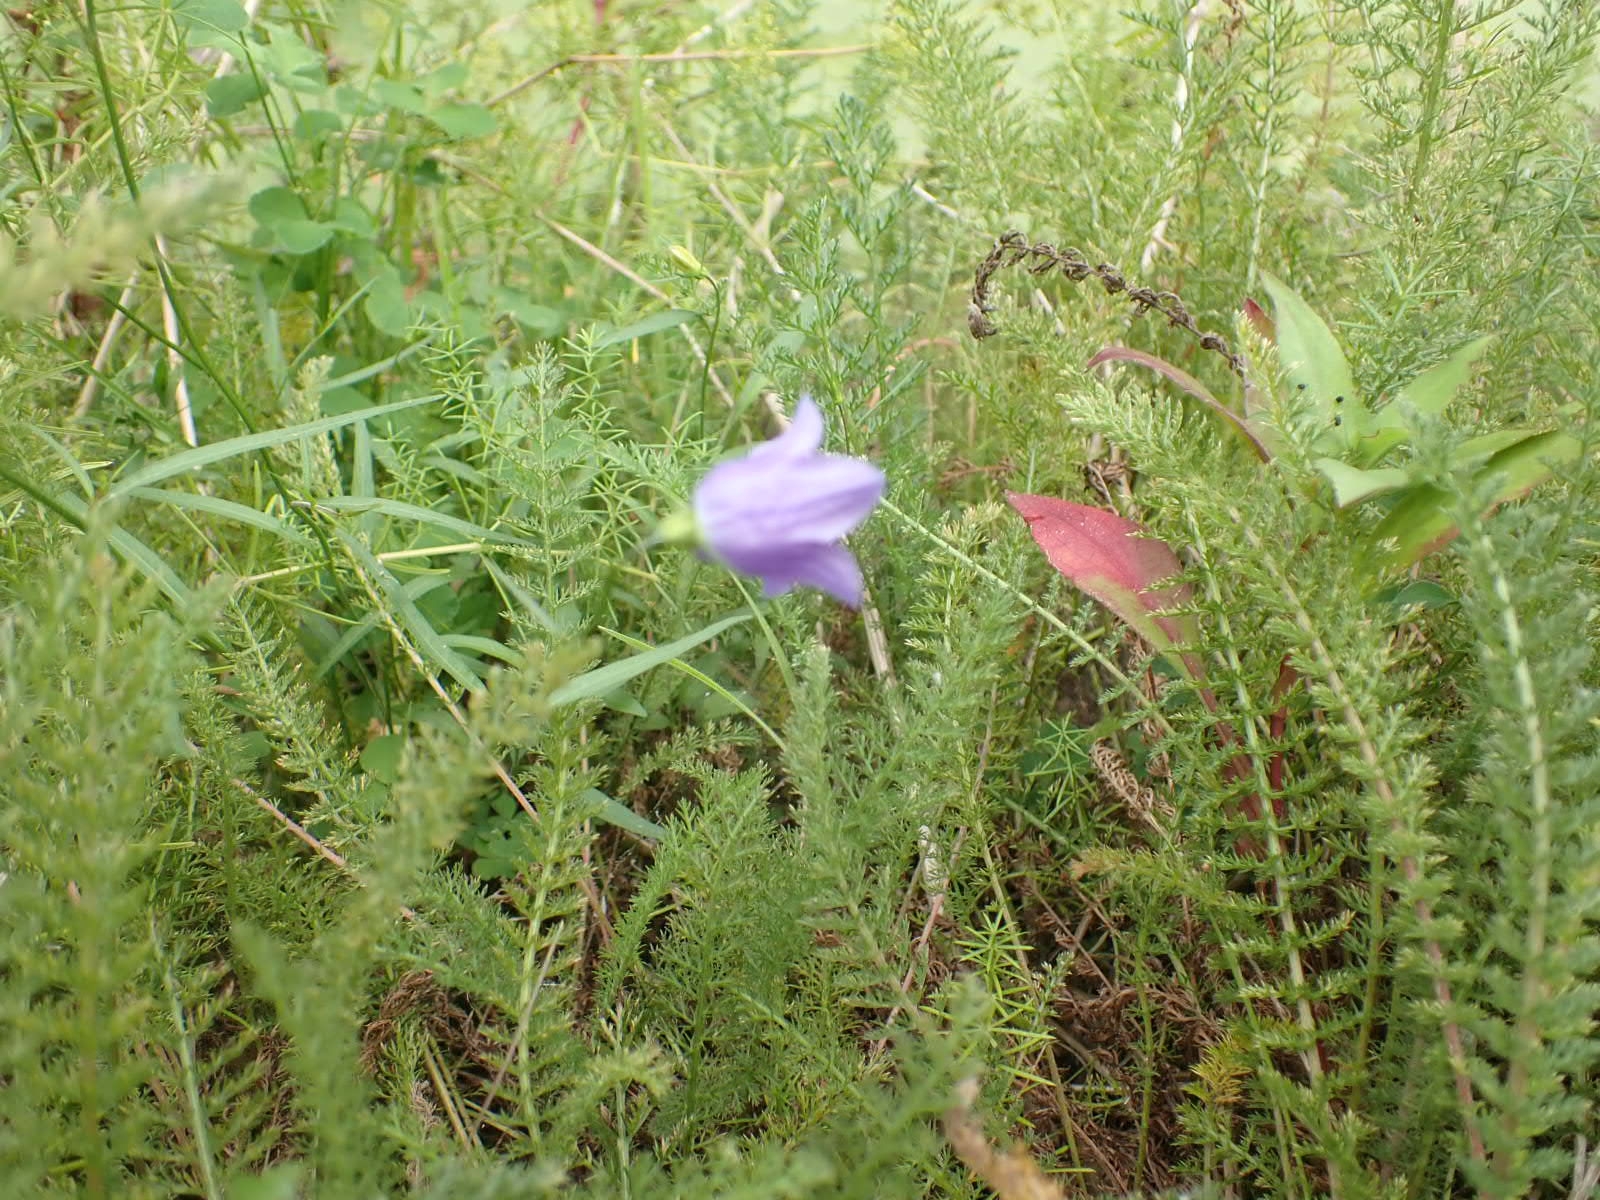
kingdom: Plantae
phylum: Tracheophyta
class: Magnoliopsida
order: Asterales
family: Campanulaceae
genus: Campanula
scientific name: Campanula rotundifolia
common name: Harebell
